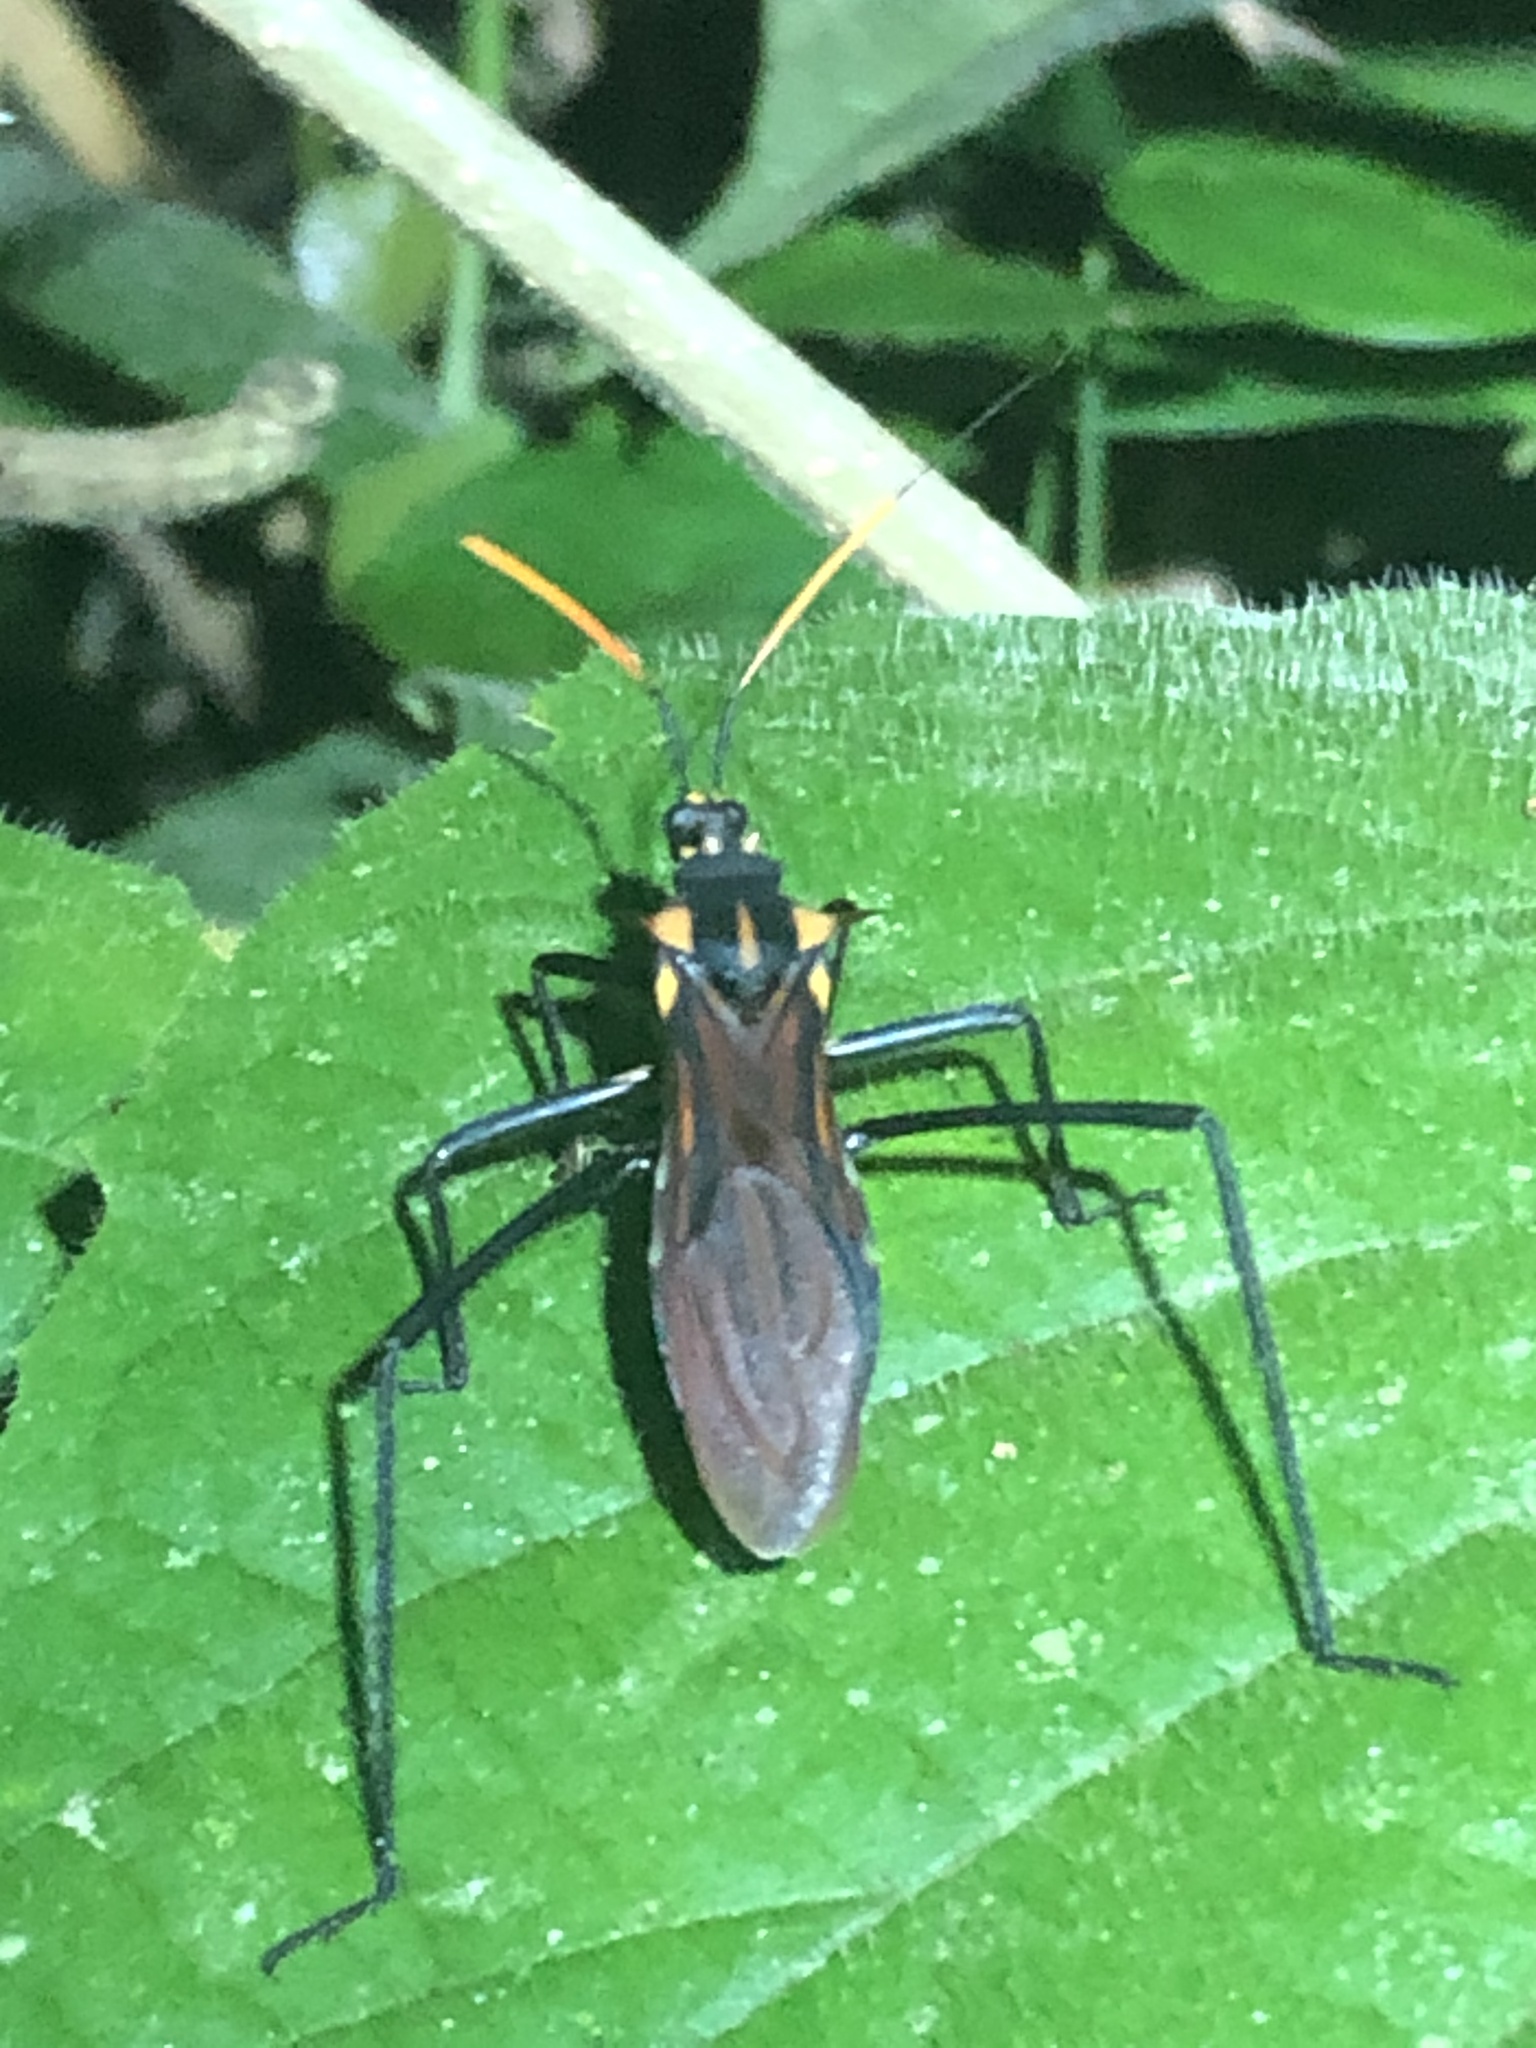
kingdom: Animalia
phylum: Arthropoda
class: Insecta
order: Hemiptera
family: Reduviidae
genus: Zelurus
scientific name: Zelurus festivus
